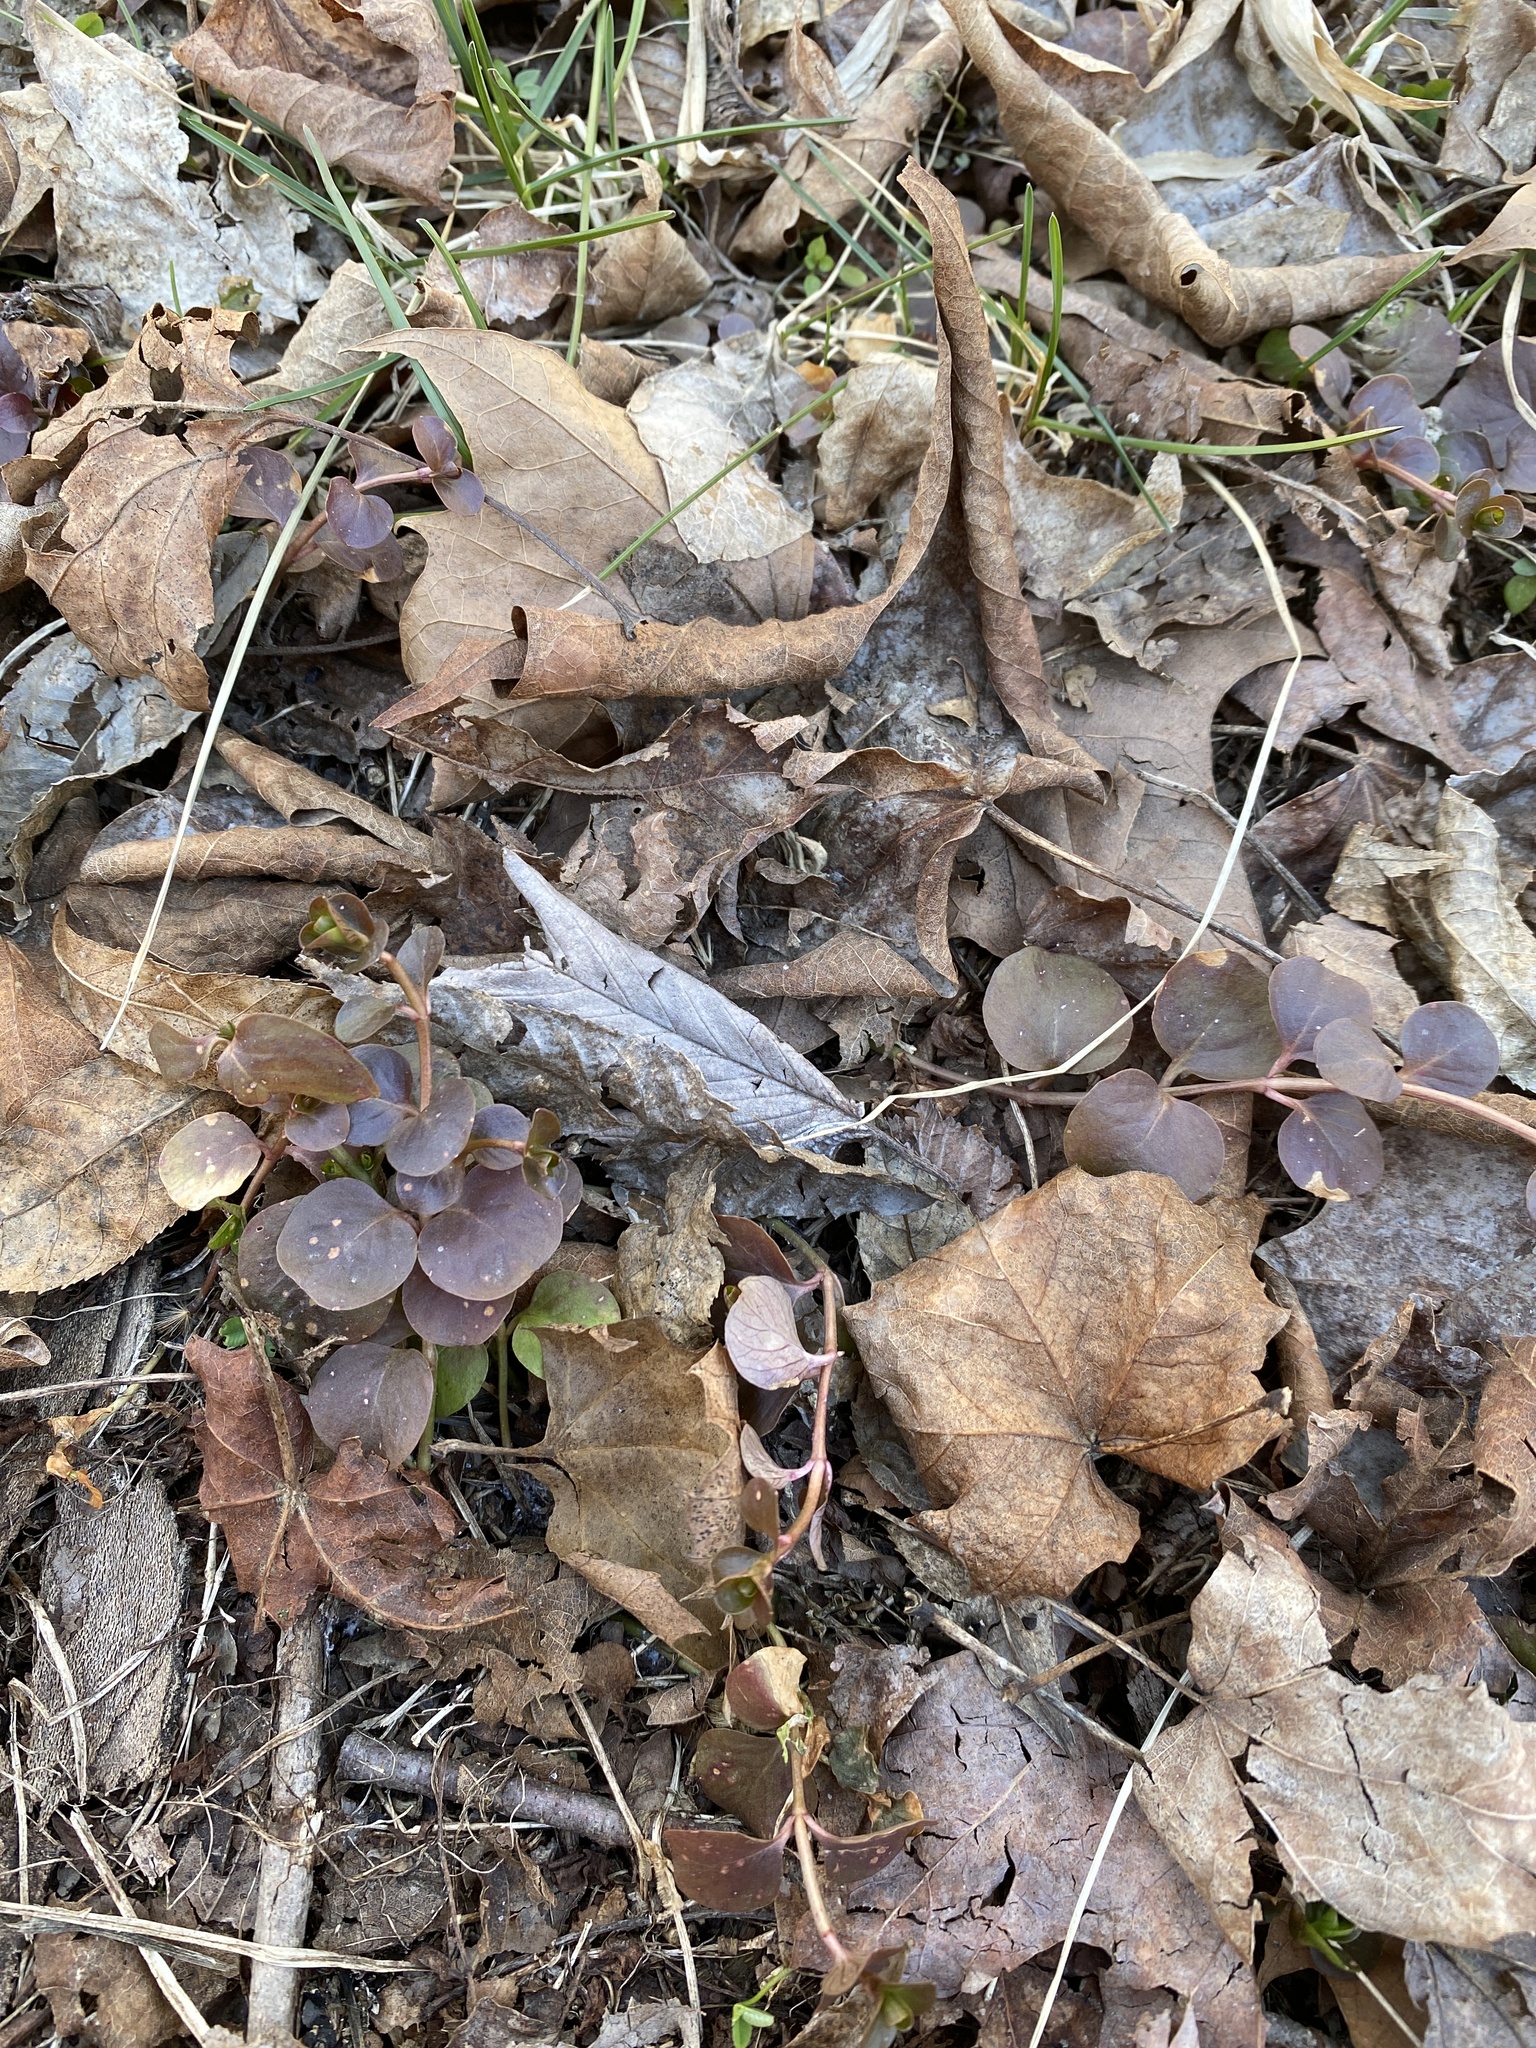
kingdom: Plantae
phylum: Tracheophyta
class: Magnoliopsida
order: Ericales
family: Primulaceae
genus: Lysimachia
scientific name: Lysimachia nummularia
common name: Moneywort
